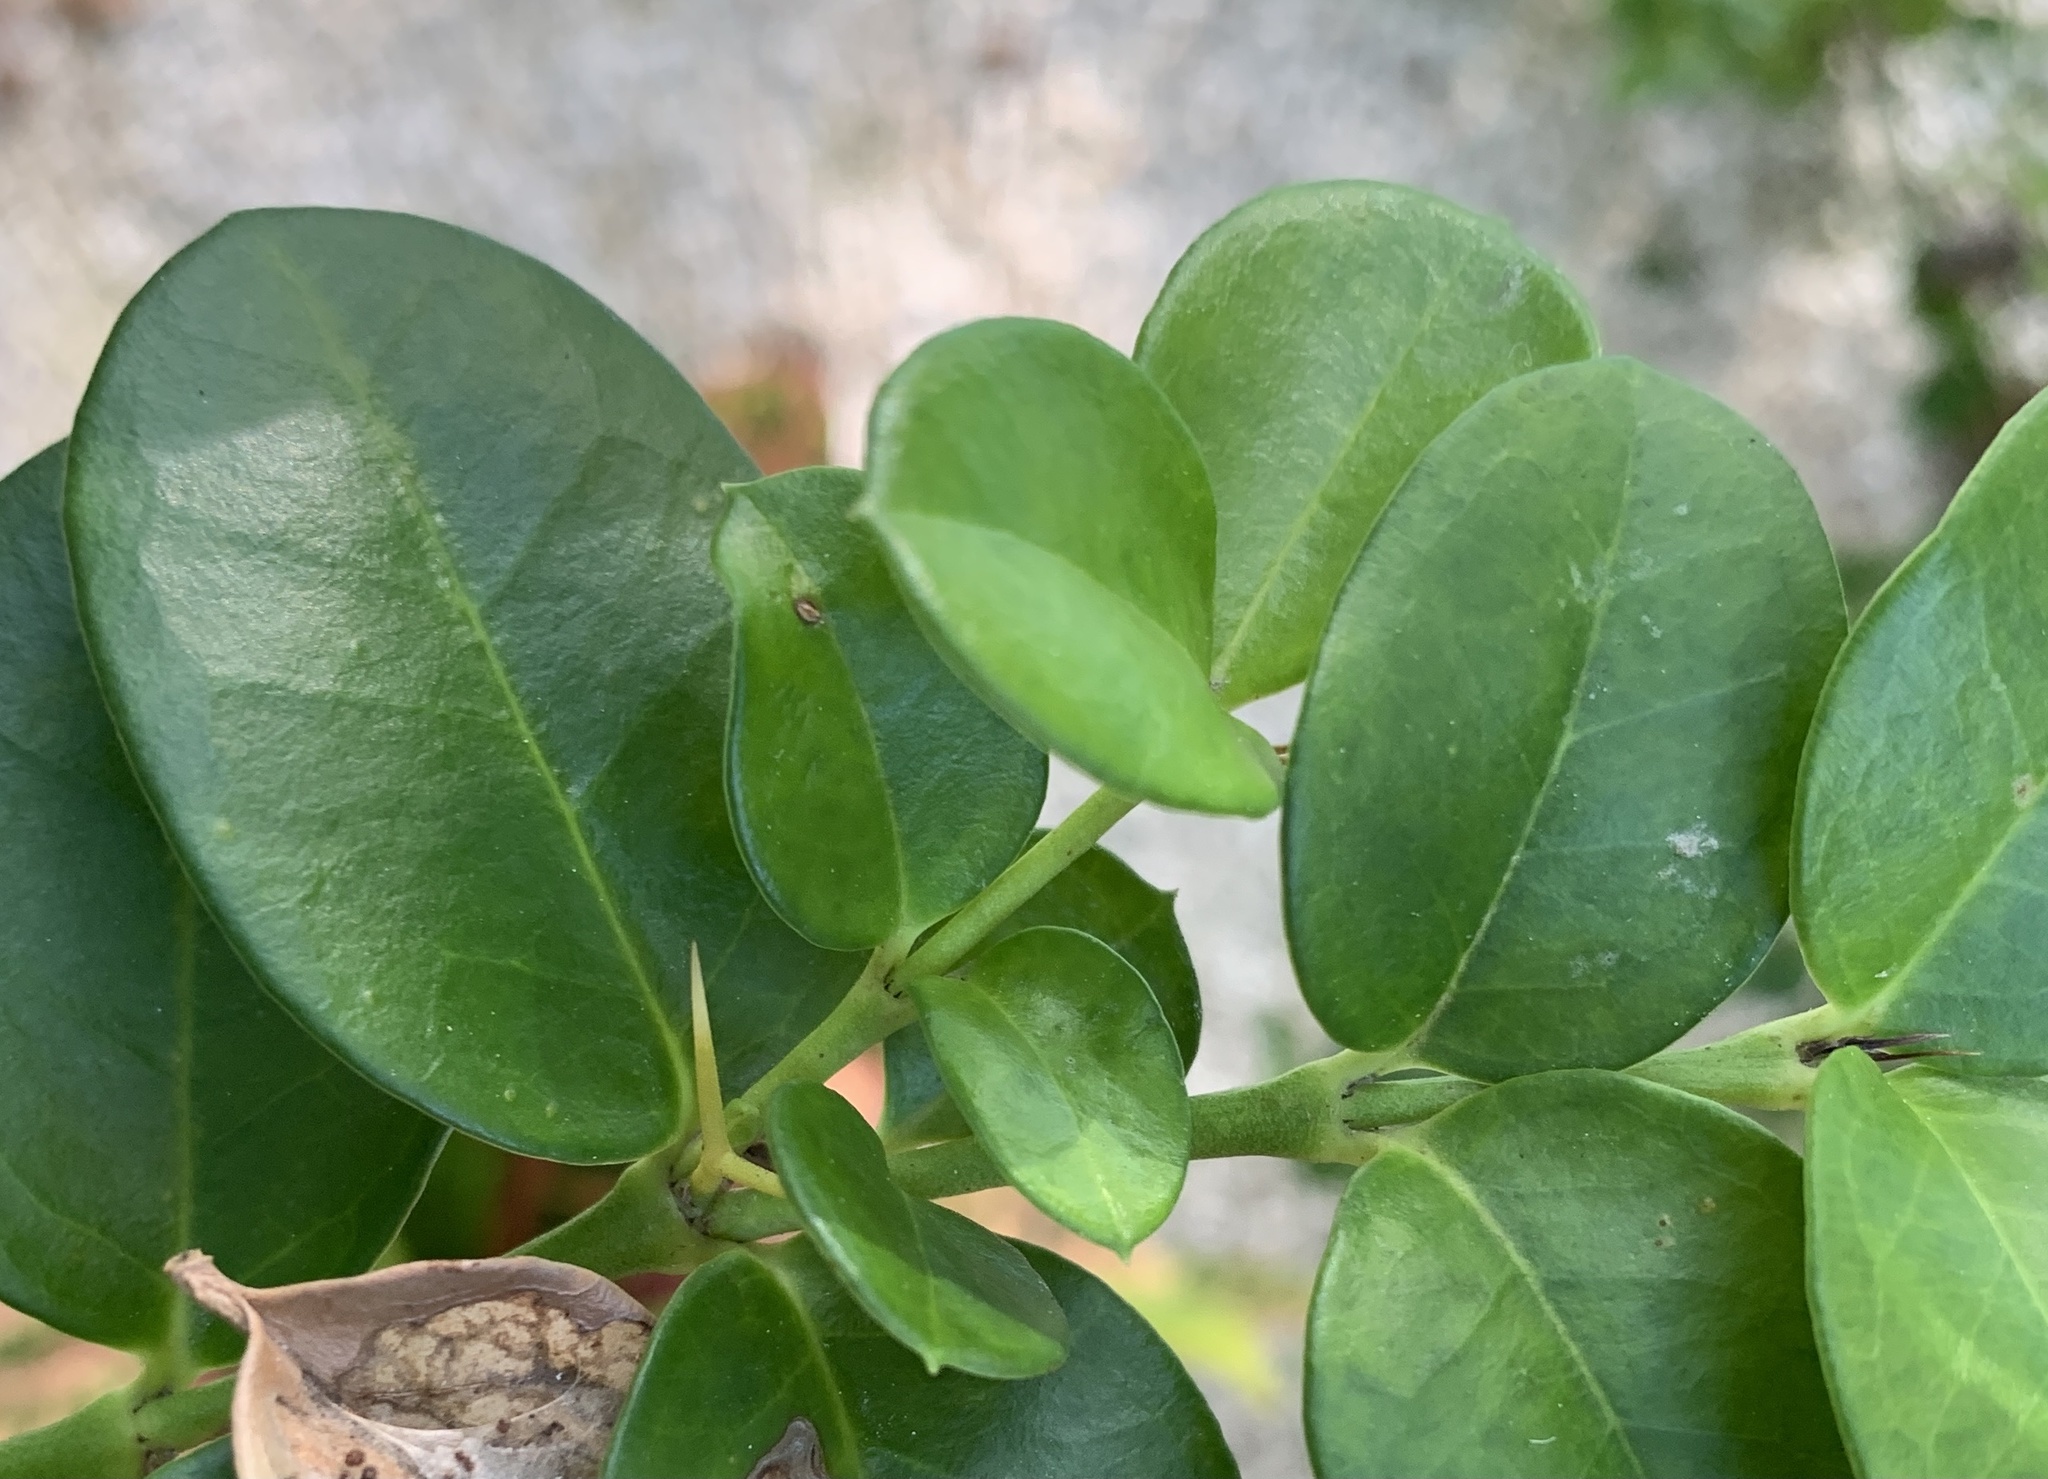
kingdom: Plantae
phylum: Tracheophyta
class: Magnoliopsida
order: Gentianales
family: Apocynaceae
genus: Carissa
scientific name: Carissa macrocarpa
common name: Natal plum
